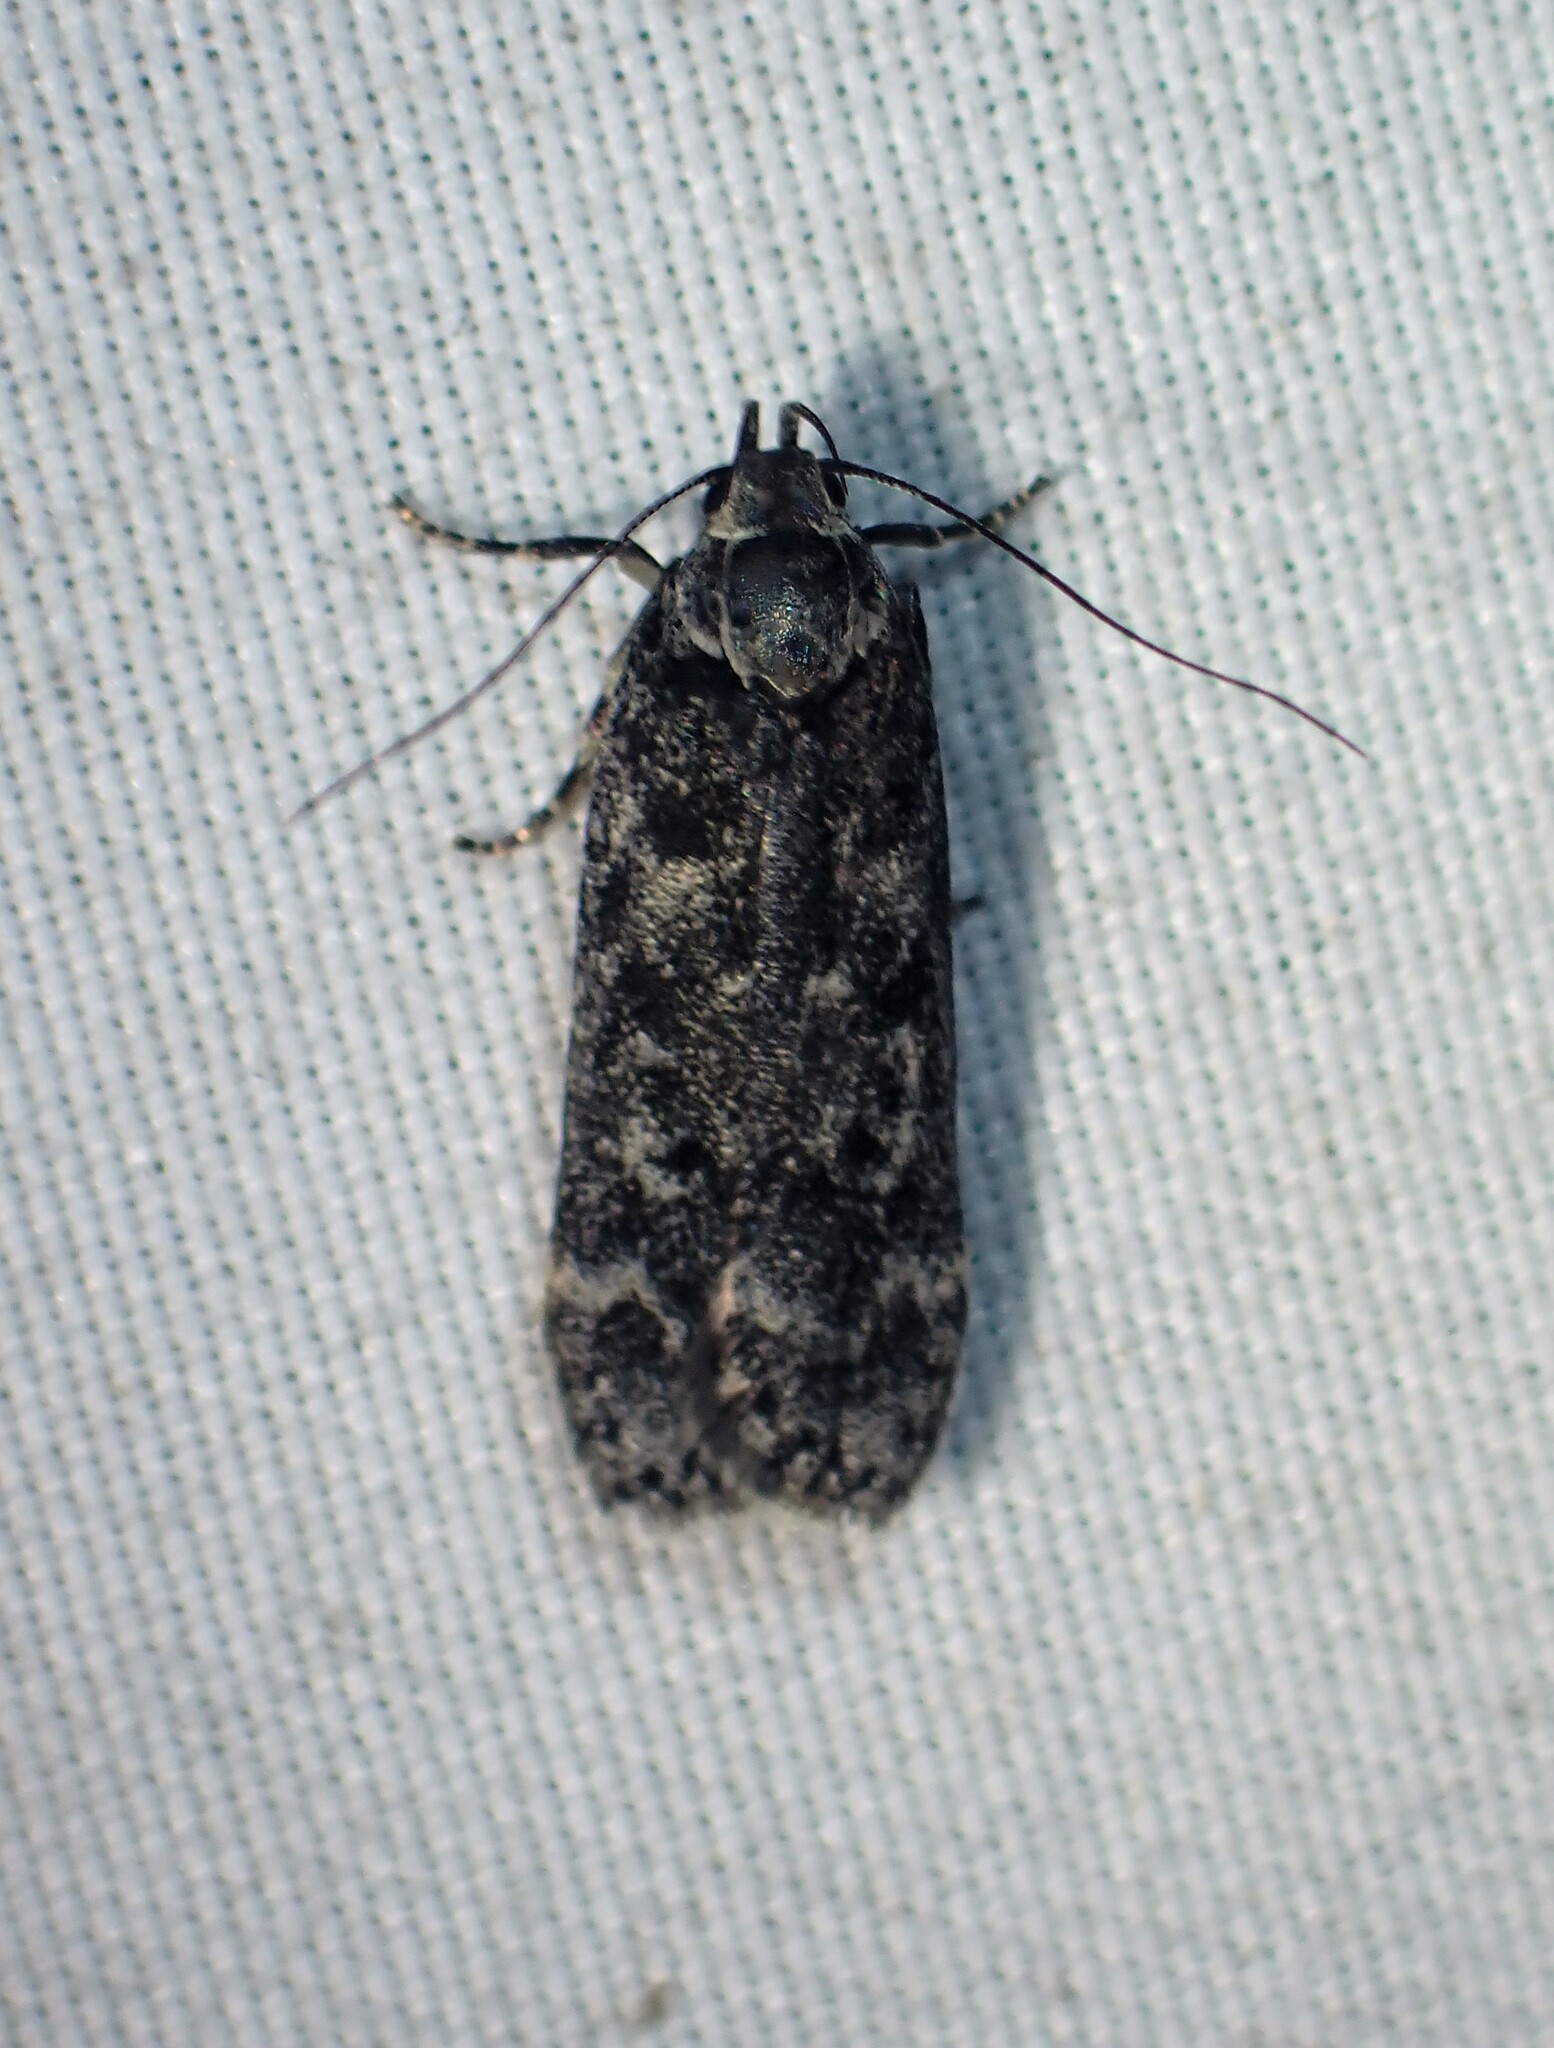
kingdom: Animalia
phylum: Arthropoda
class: Insecta
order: Lepidoptera
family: Gelechiidae
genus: Anacampsis
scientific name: Anacampsis niveopulvella
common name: Pale-headed aspen leafroller moth
